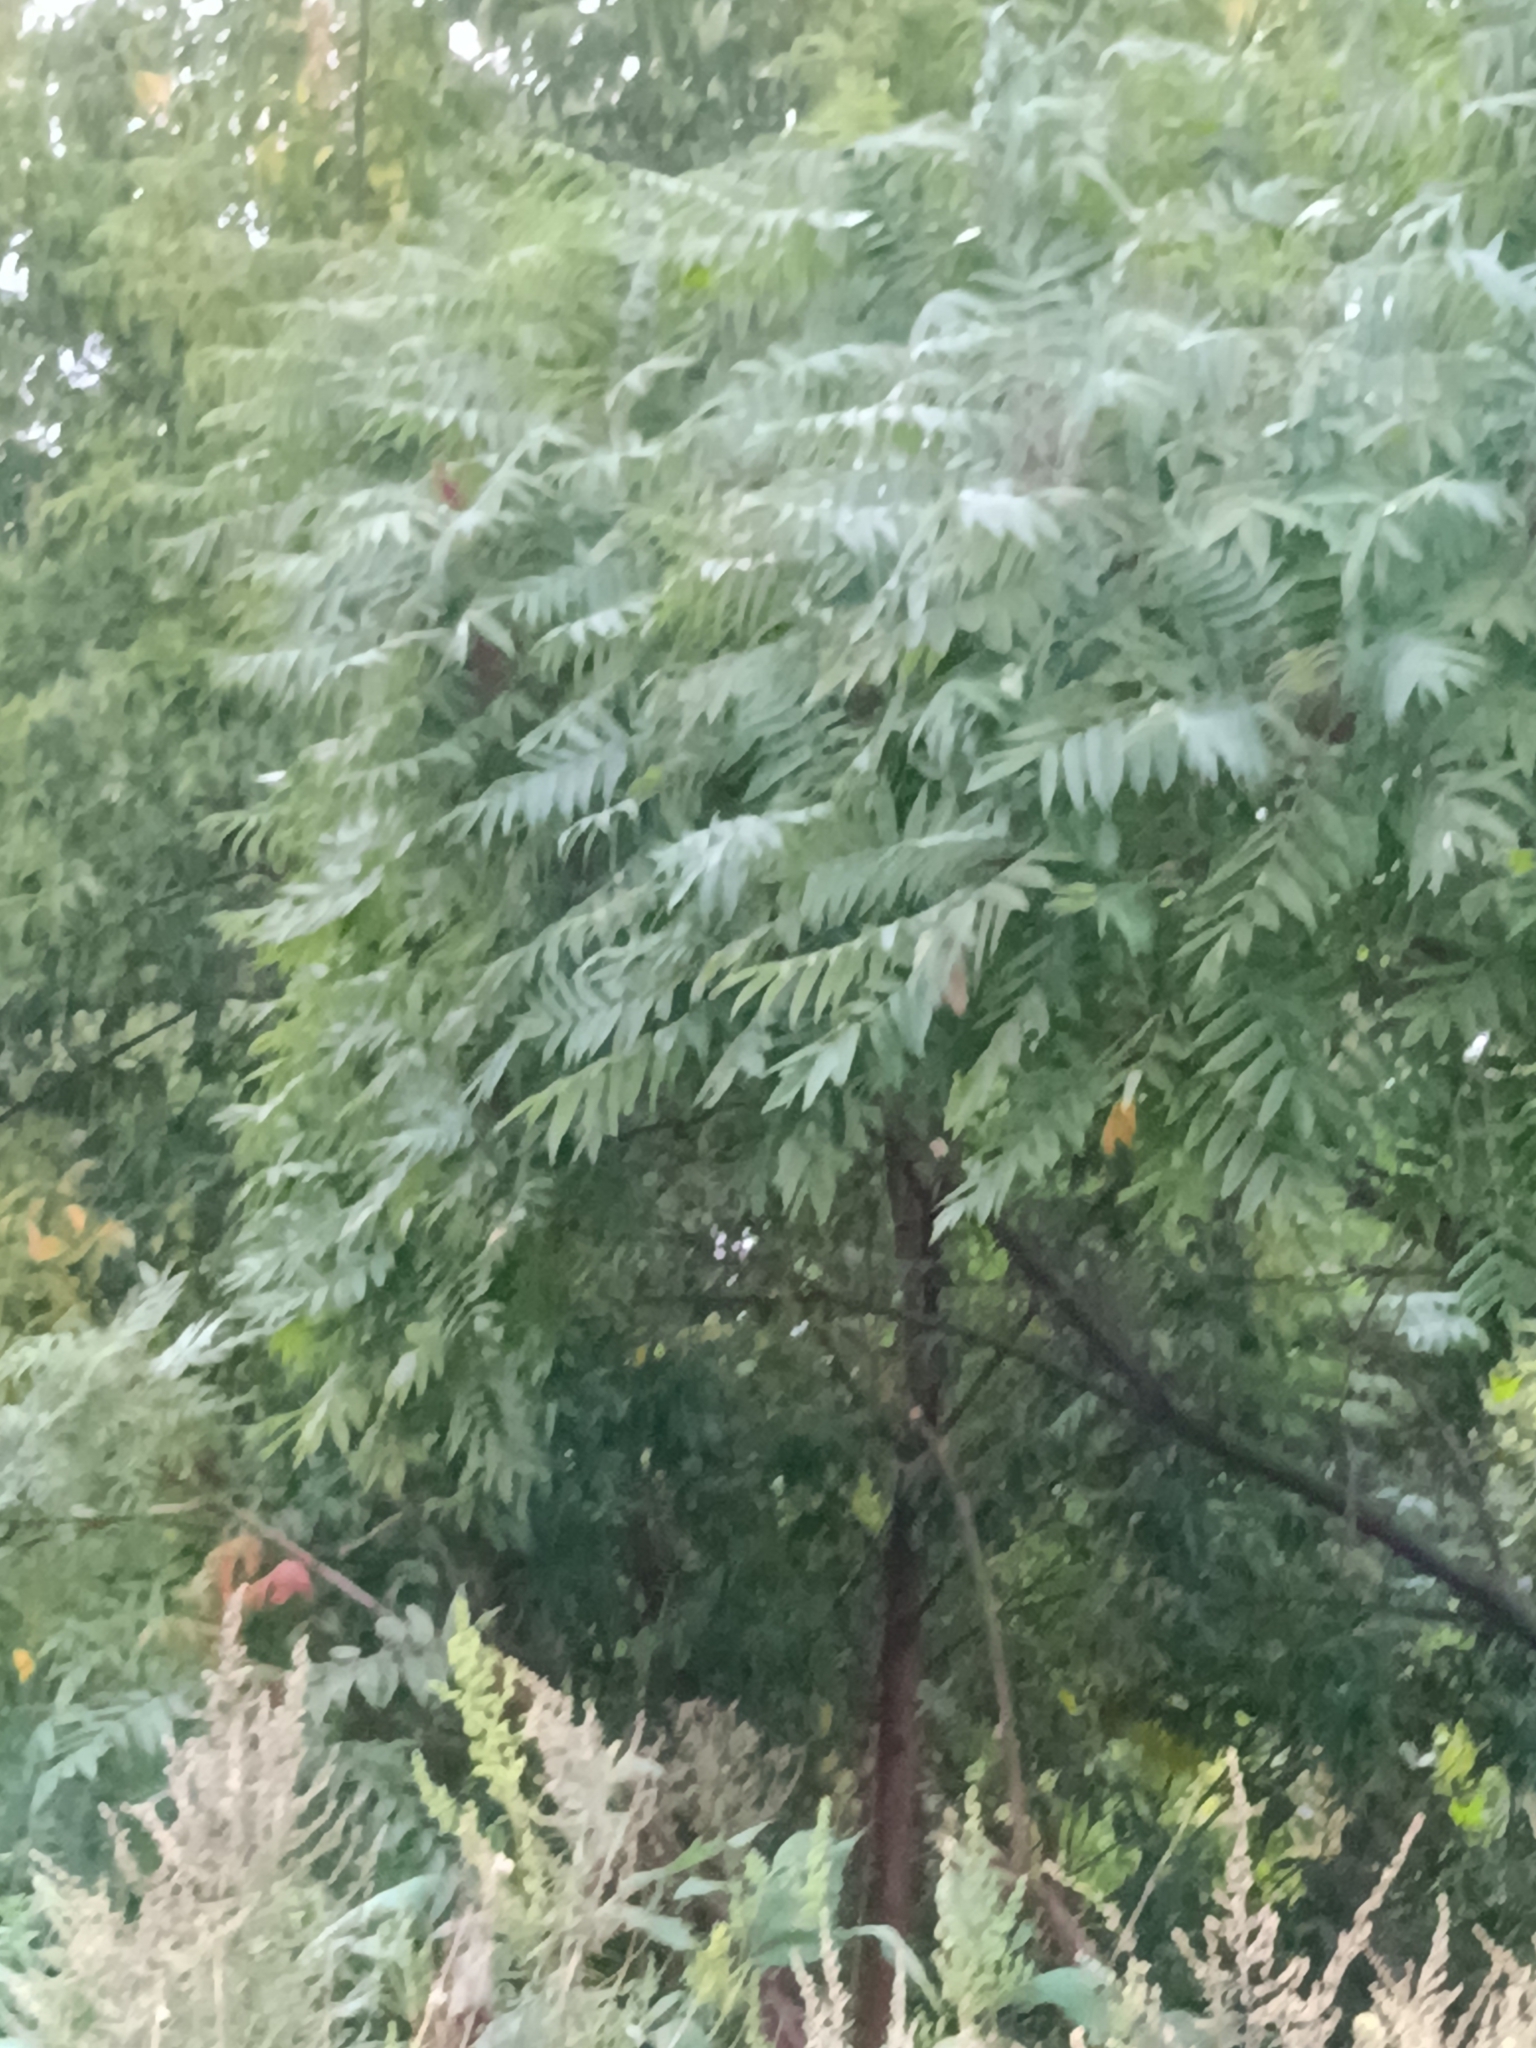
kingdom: Plantae
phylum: Tracheophyta
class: Magnoliopsida
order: Sapindales
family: Anacardiaceae
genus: Rhus
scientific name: Rhus typhina
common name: Staghorn sumac
